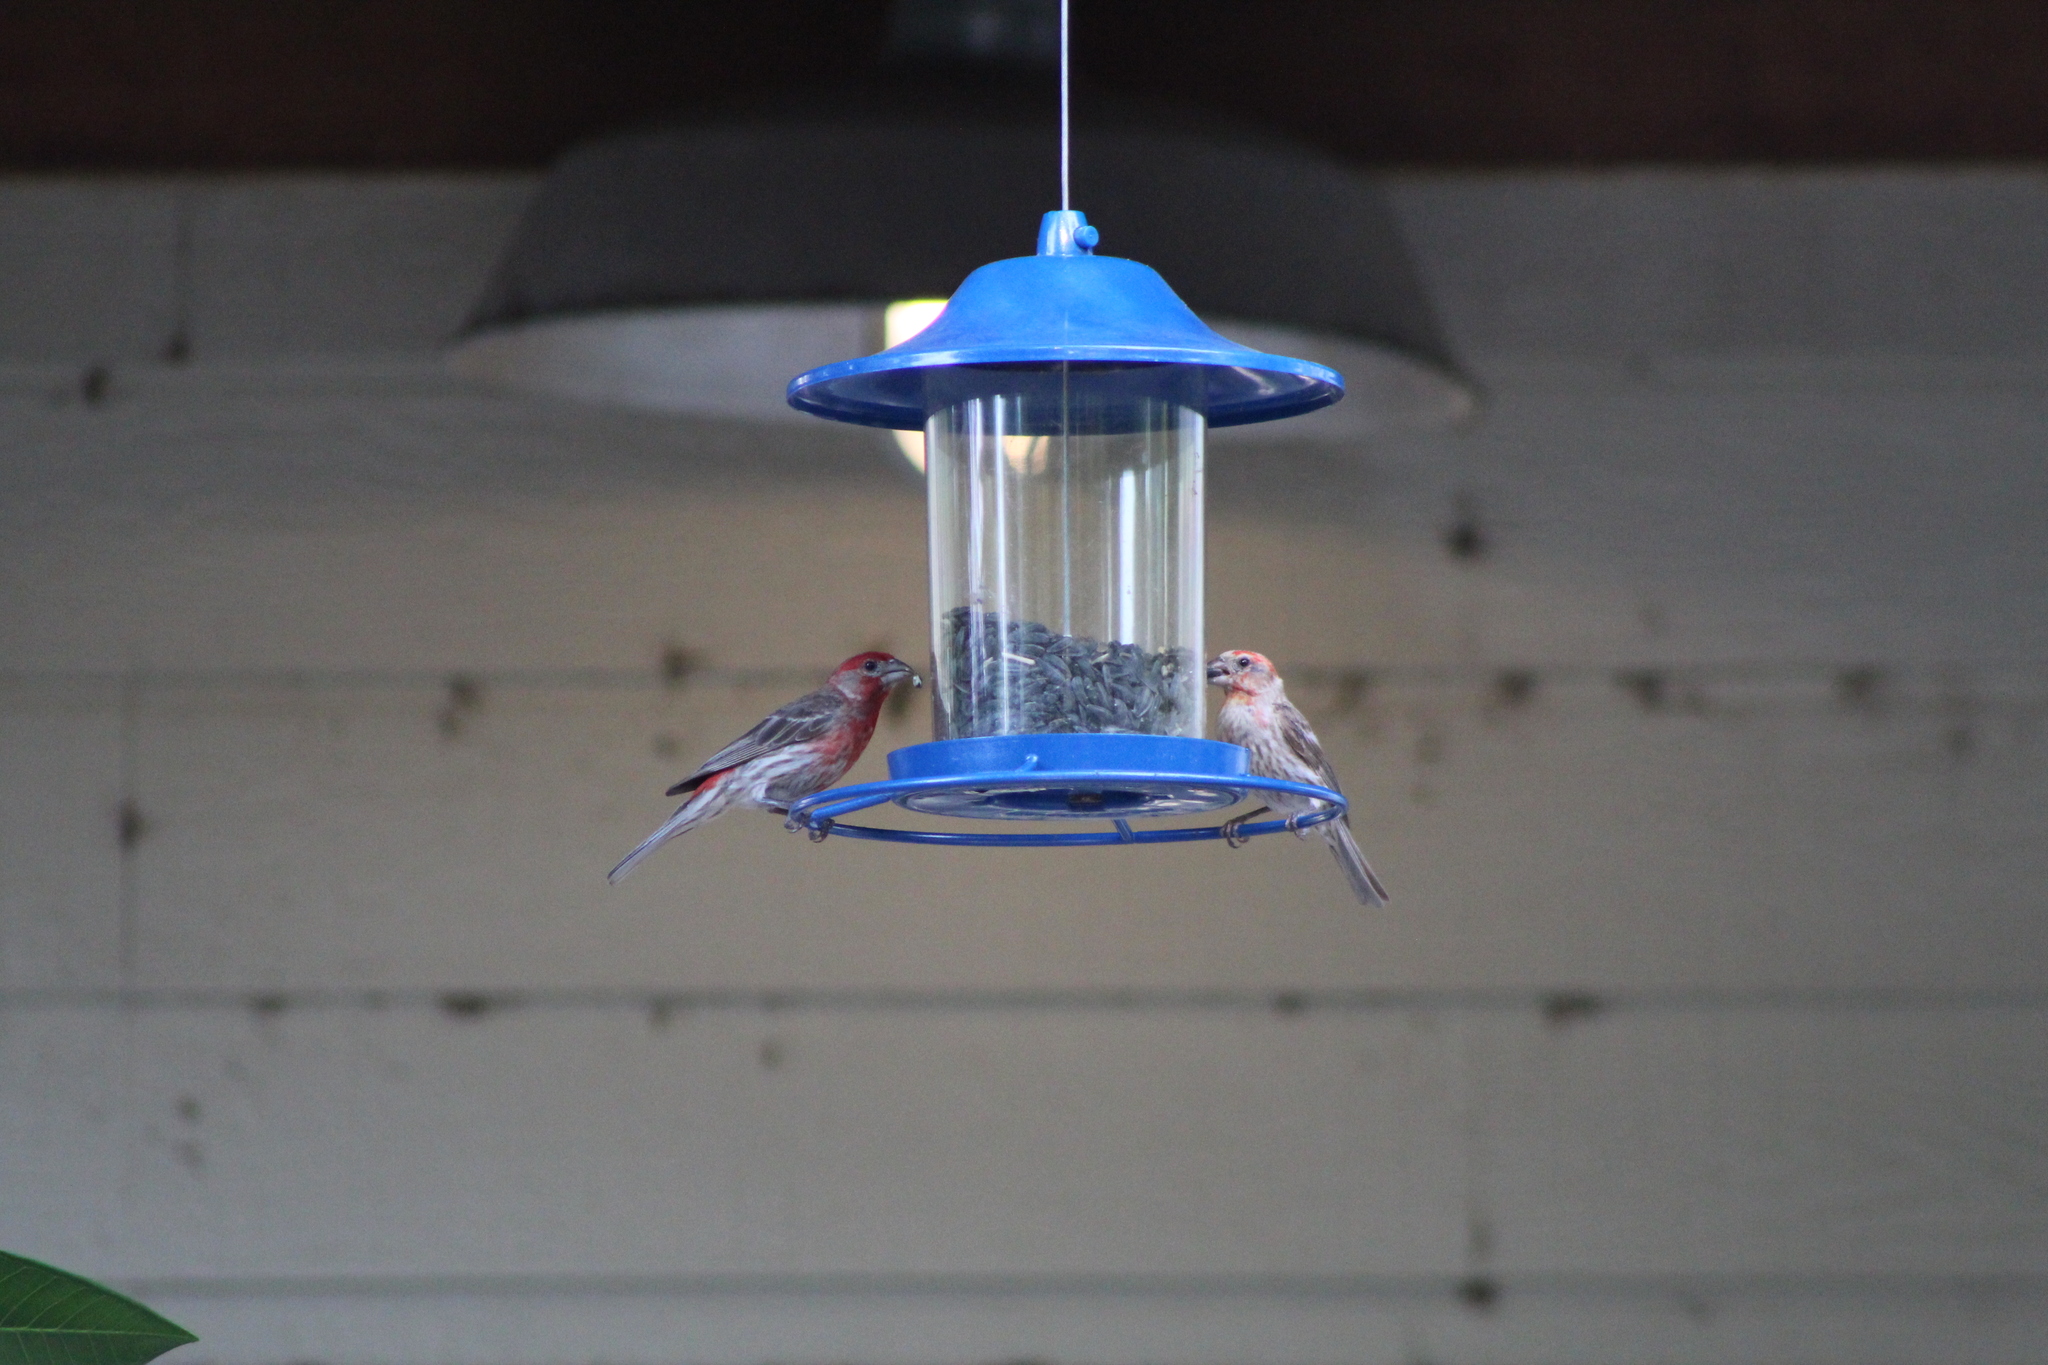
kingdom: Animalia
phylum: Chordata
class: Aves
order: Passeriformes
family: Fringillidae
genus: Haemorhous
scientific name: Haemorhous mexicanus
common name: House finch
